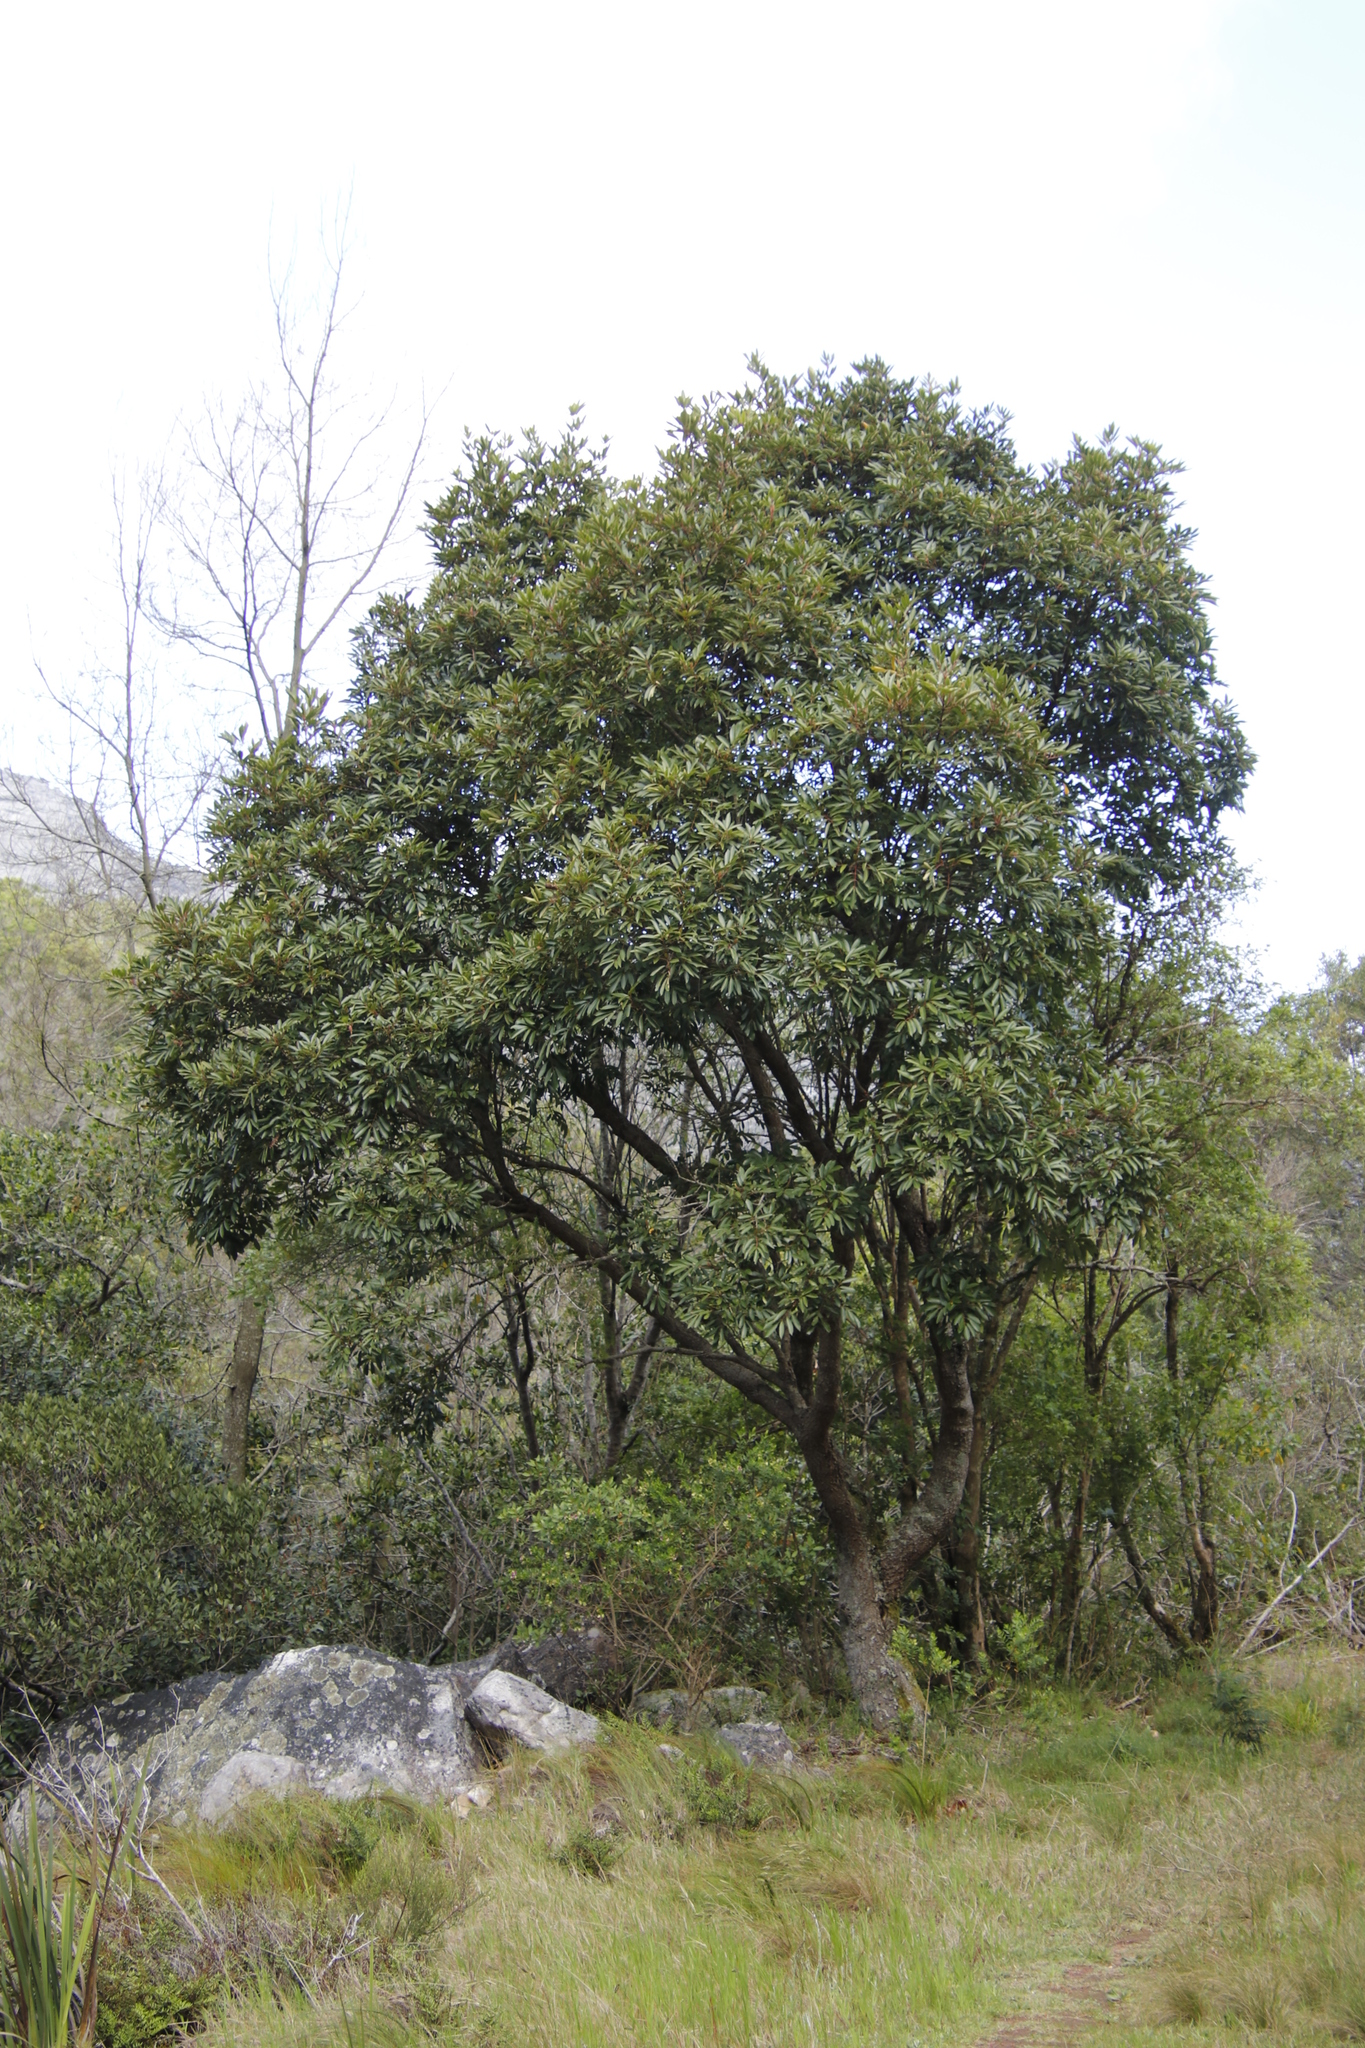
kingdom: Plantae
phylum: Tracheophyta
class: Magnoliopsida
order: Oxalidales
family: Cunoniaceae
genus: Cunonia
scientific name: Cunonia capensis
